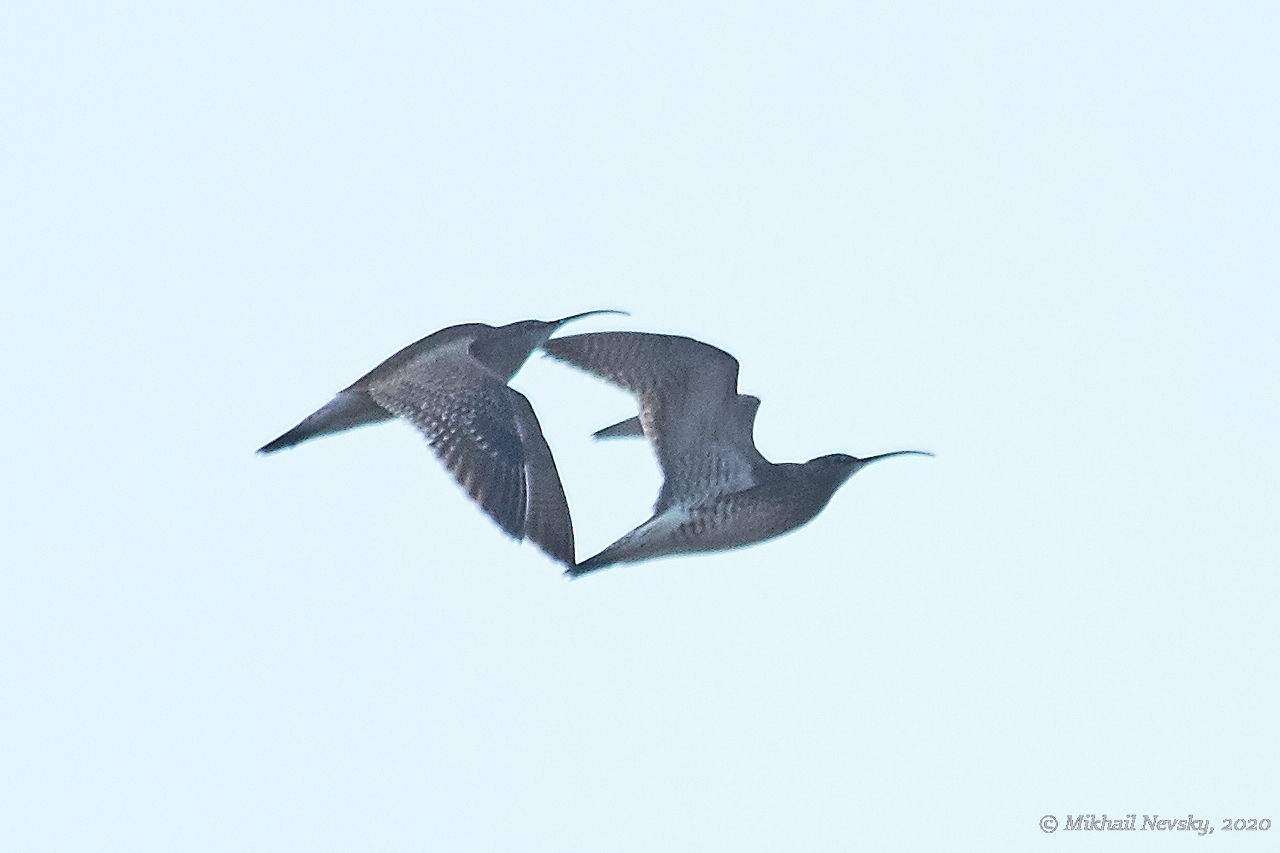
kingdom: Animalia
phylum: Chordata
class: Aves
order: Charadriiformes
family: Scolopacidae
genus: Numenius
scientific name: Numenius phaeopus
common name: Whimbrel
